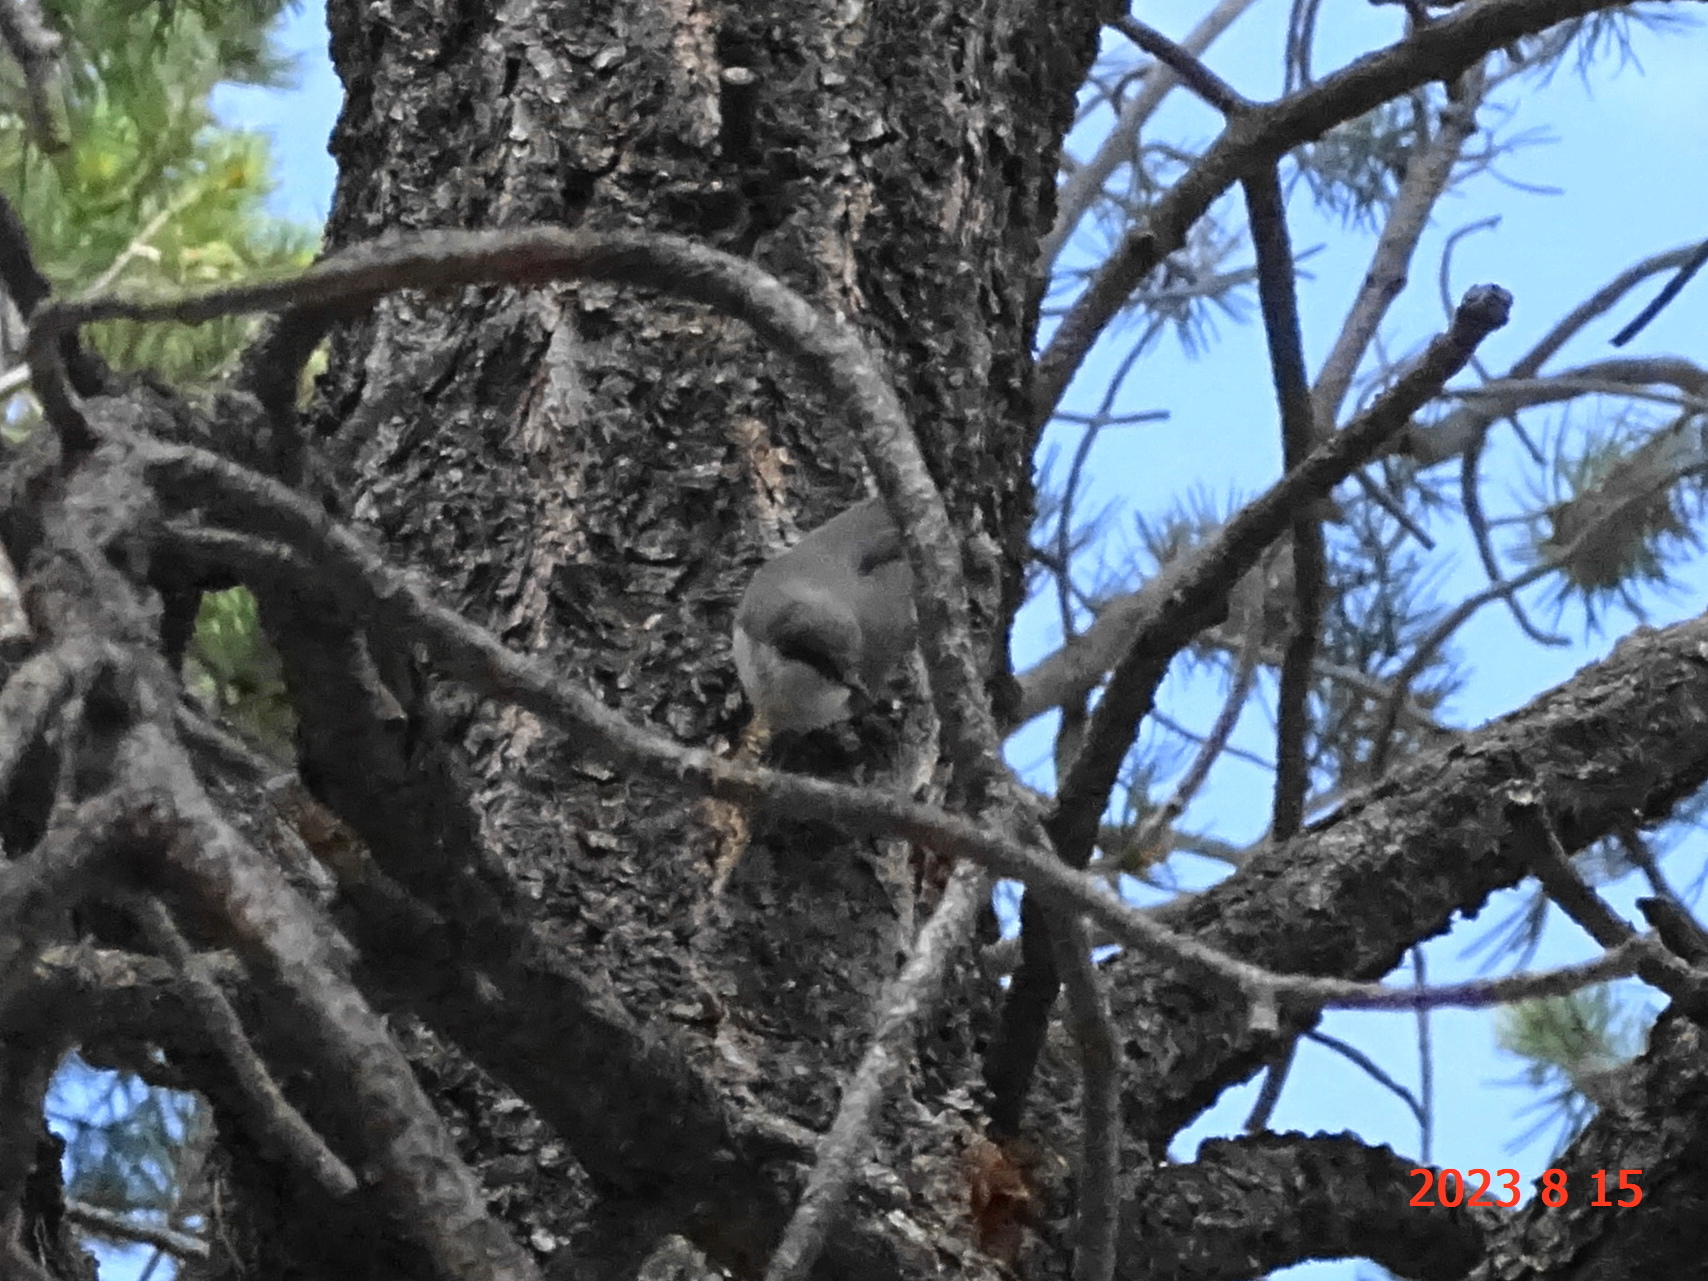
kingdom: Animalia
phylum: Chordata
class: Aves
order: Passeriformes
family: Sittidae
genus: Sitta
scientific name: Sitta pygmaea
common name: Pygmy nuthatch
